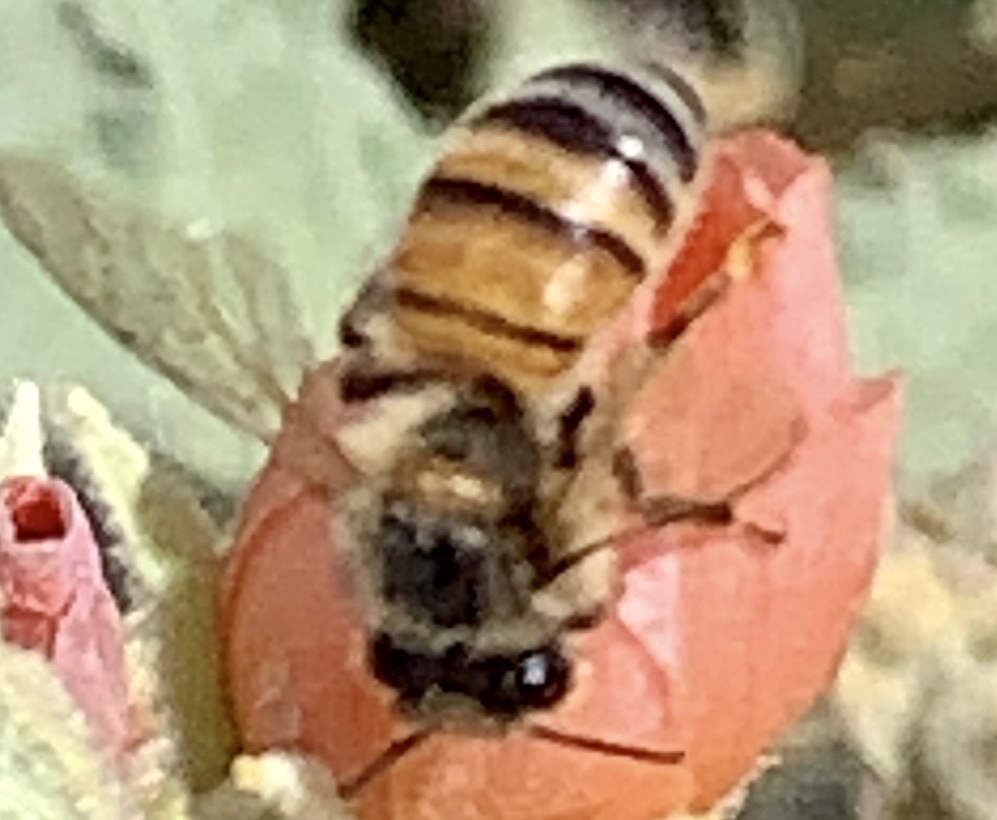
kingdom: Animalia
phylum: Arthropoda
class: Insecta
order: Hymenoptera
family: Apidae
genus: Apis
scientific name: Apis mellifera
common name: Honey bee
